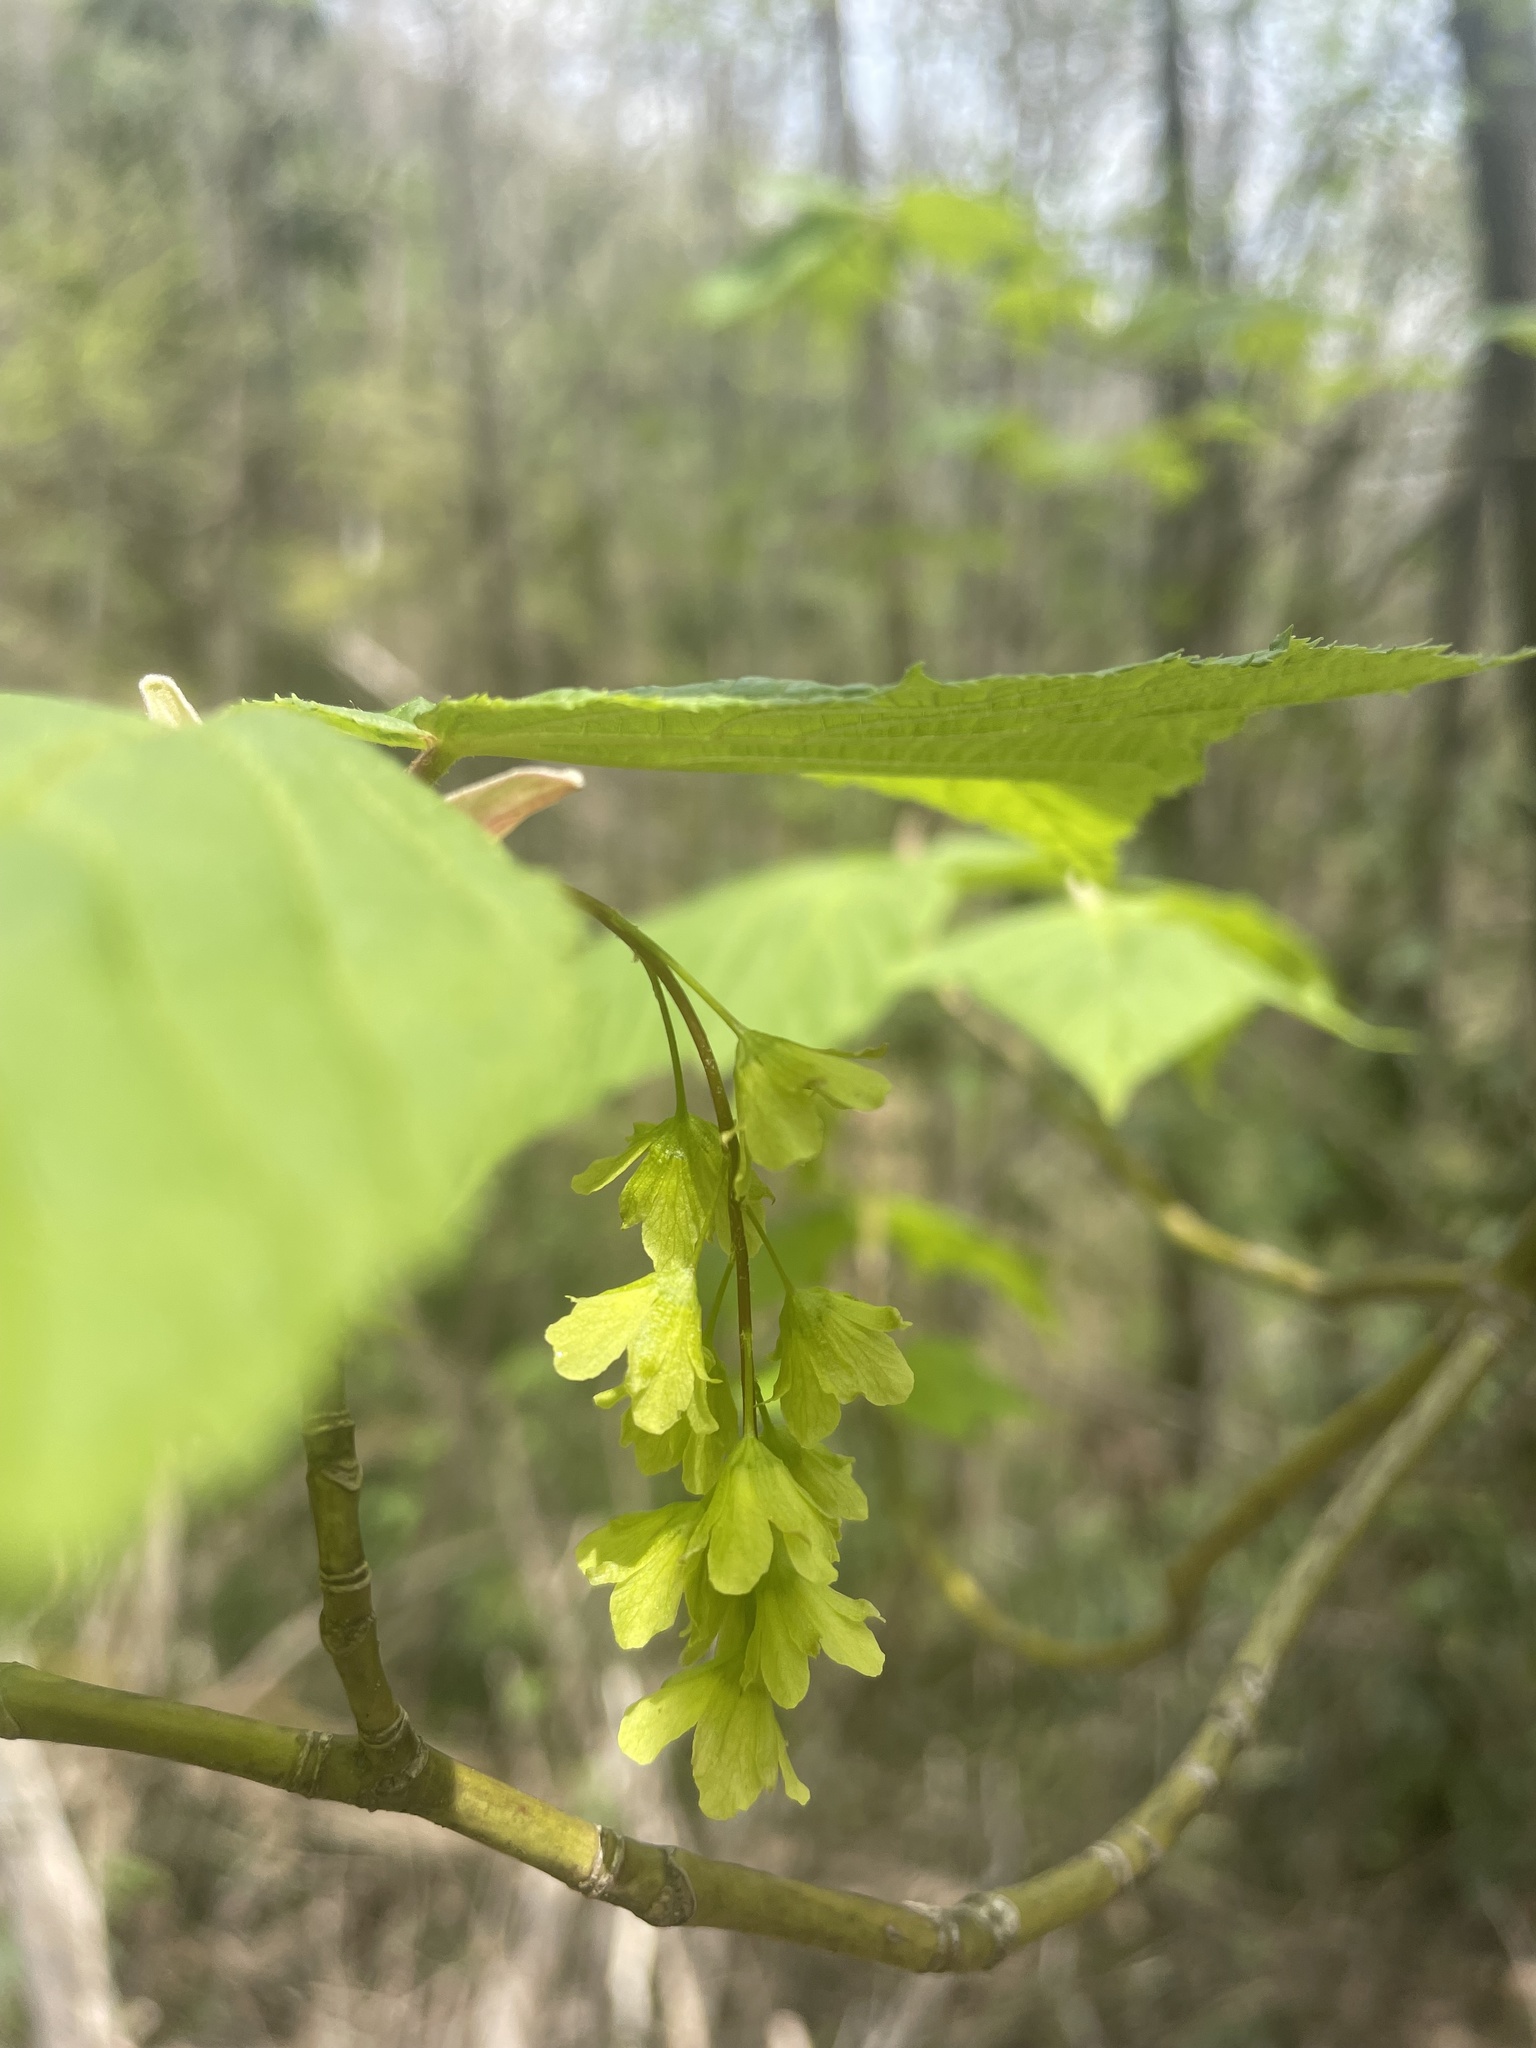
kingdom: Plantae
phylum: Tracheophyta
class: Magnoliopsida
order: Sapindales
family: Sapindaceae
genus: Acer
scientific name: Acer pensylvanicum
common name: Moosewood
